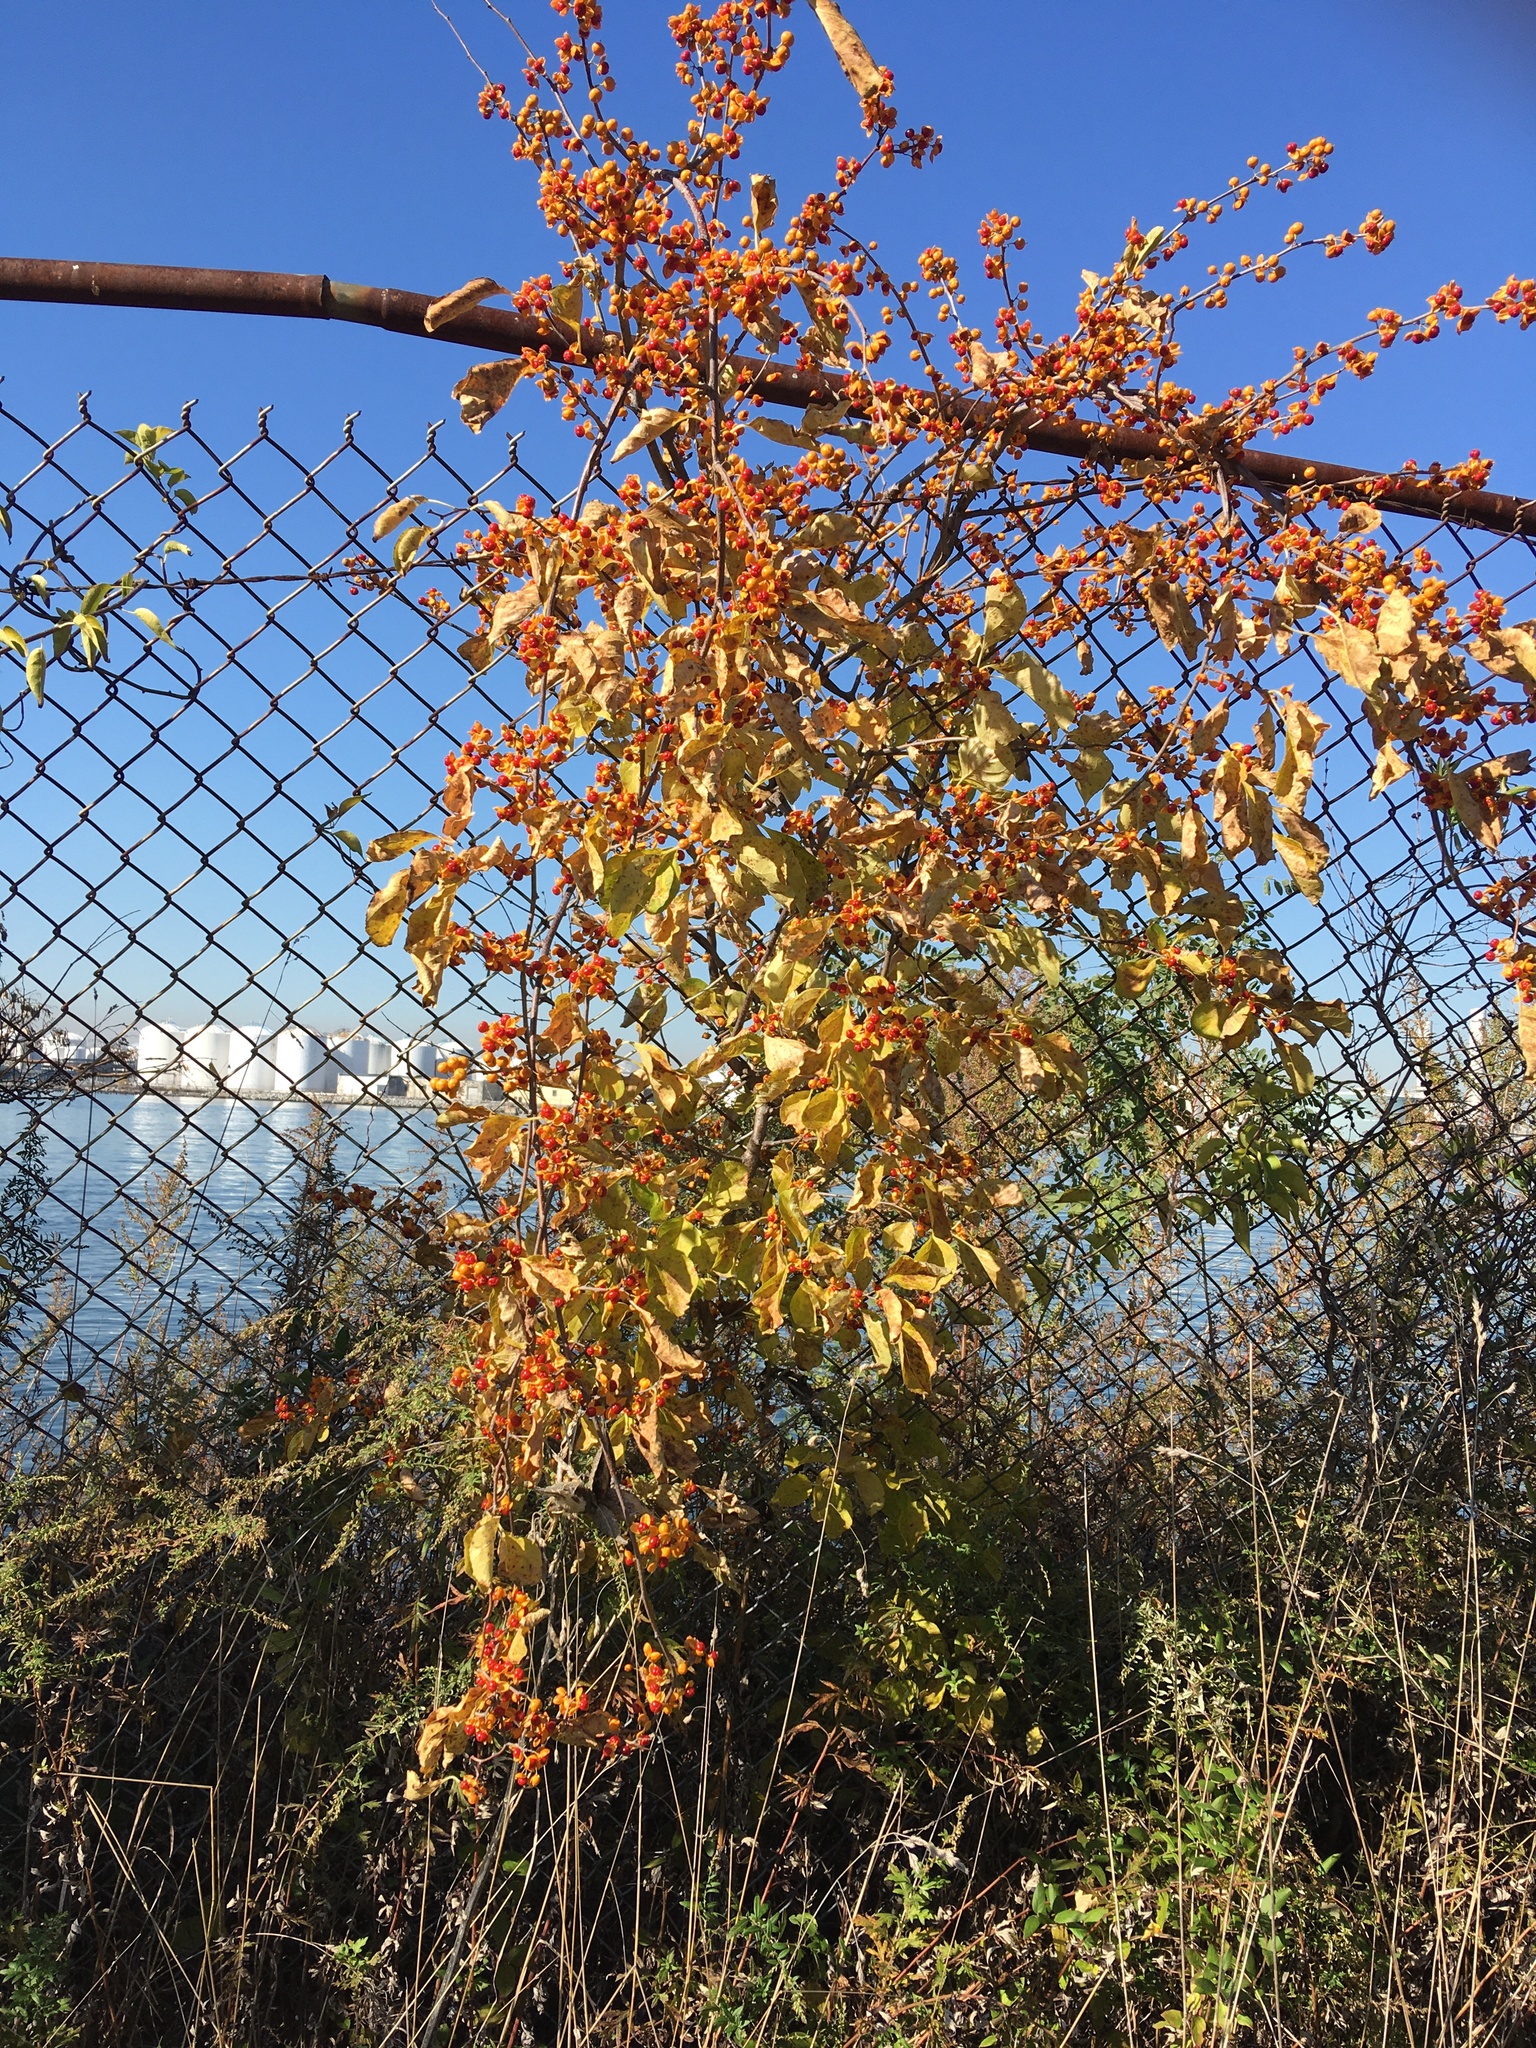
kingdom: Plantae
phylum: Tracheophyta
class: Magnoliopsida
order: Celastrales
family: Celastraceae
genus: Celastrus
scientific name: Celastrus orbiculatus
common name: Oriental bittersweet
